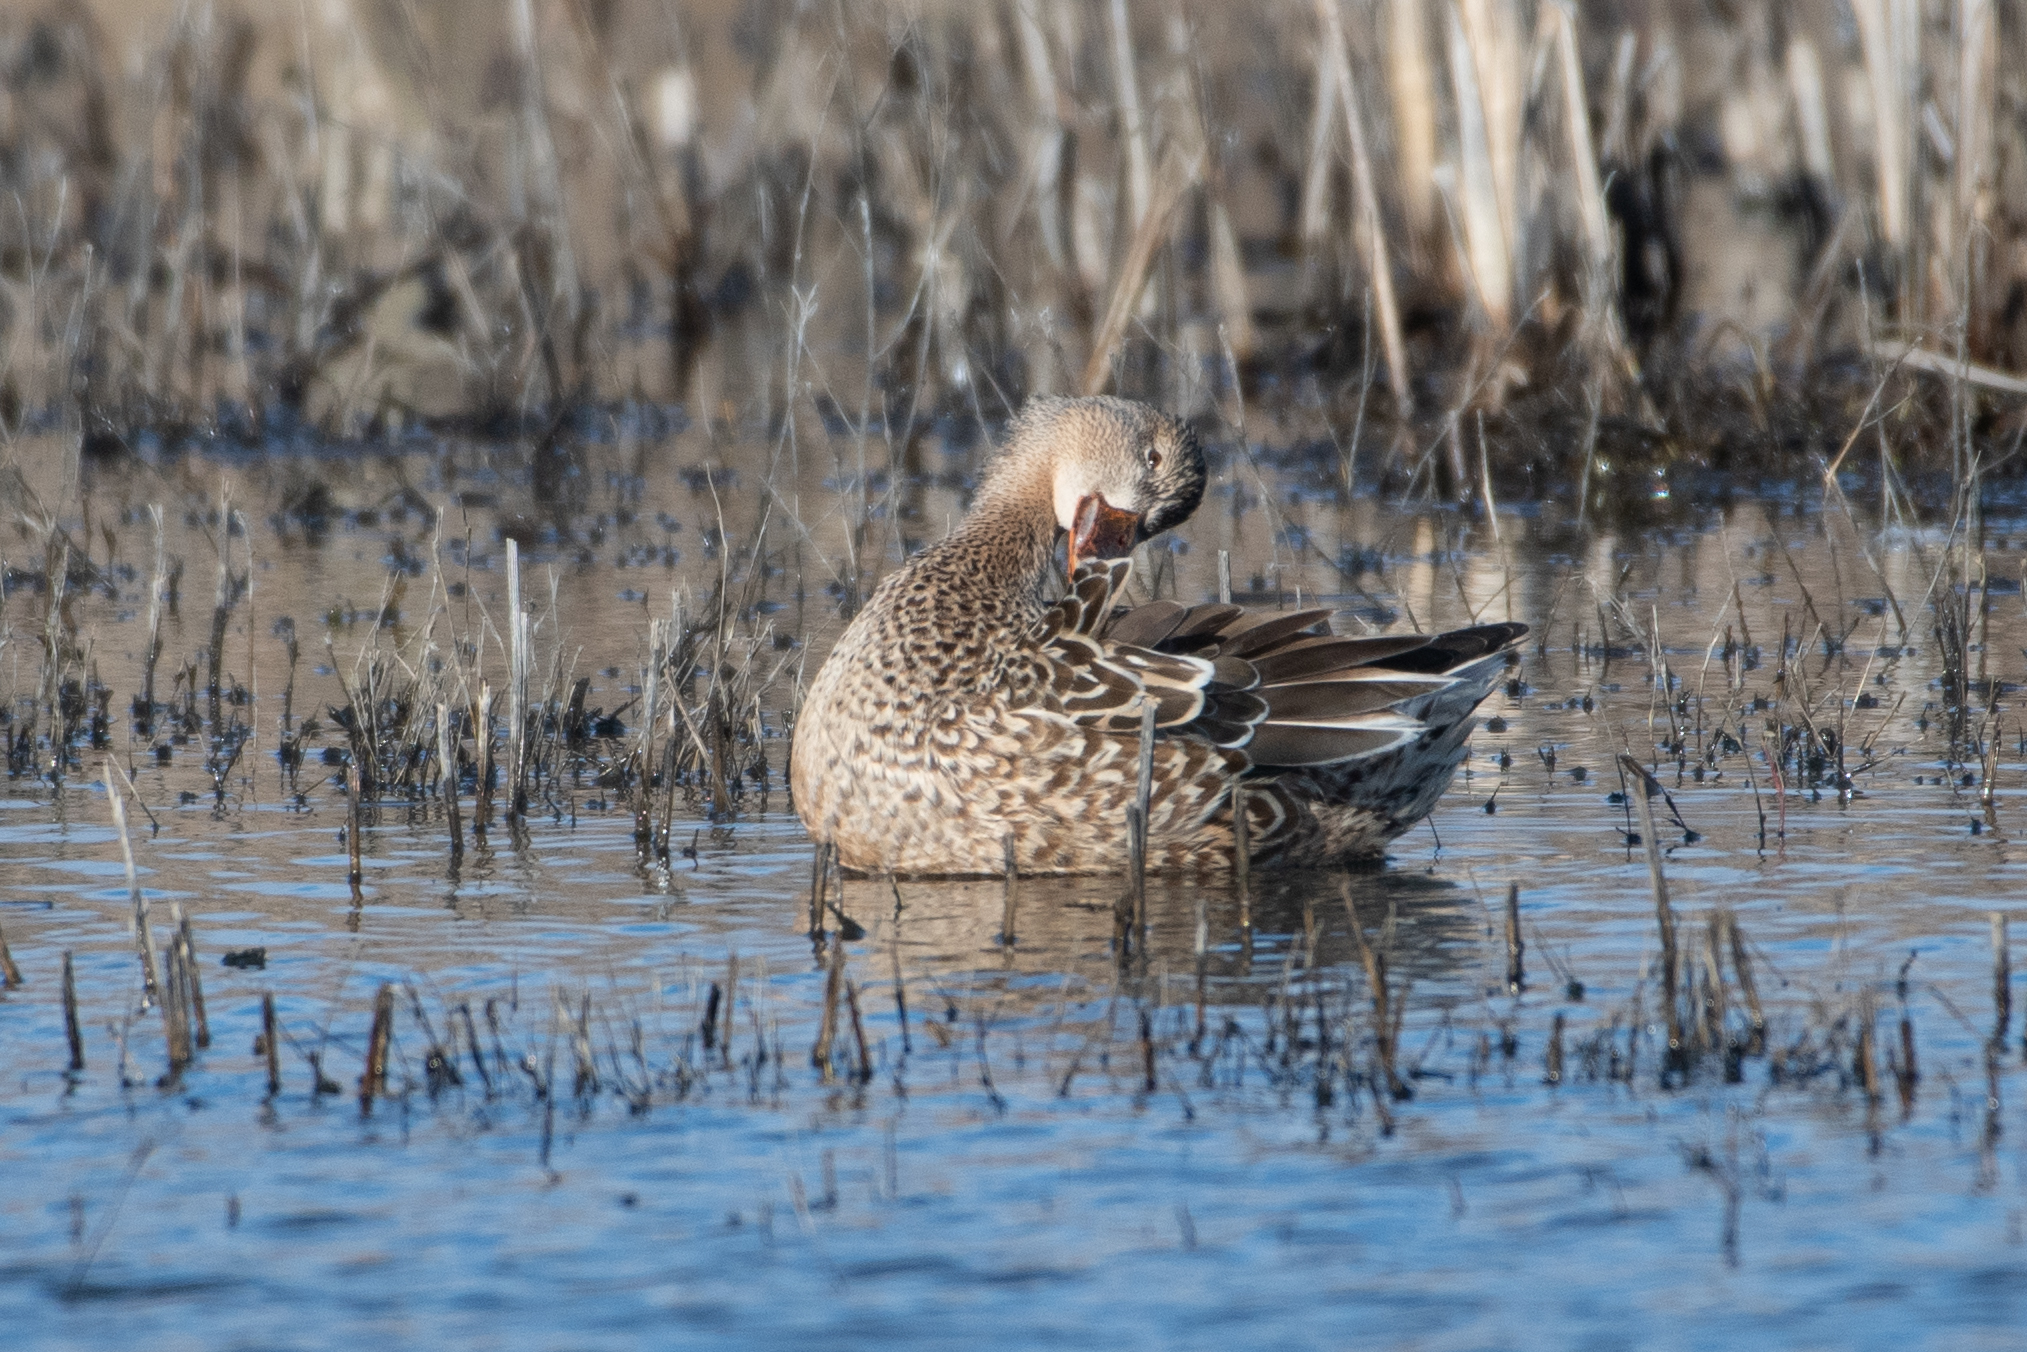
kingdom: Animalia
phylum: Chordata
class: Aves
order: Anseriformes
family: Anatidae
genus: Spatula
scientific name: Spatula clypeata
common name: Northern shoveler
